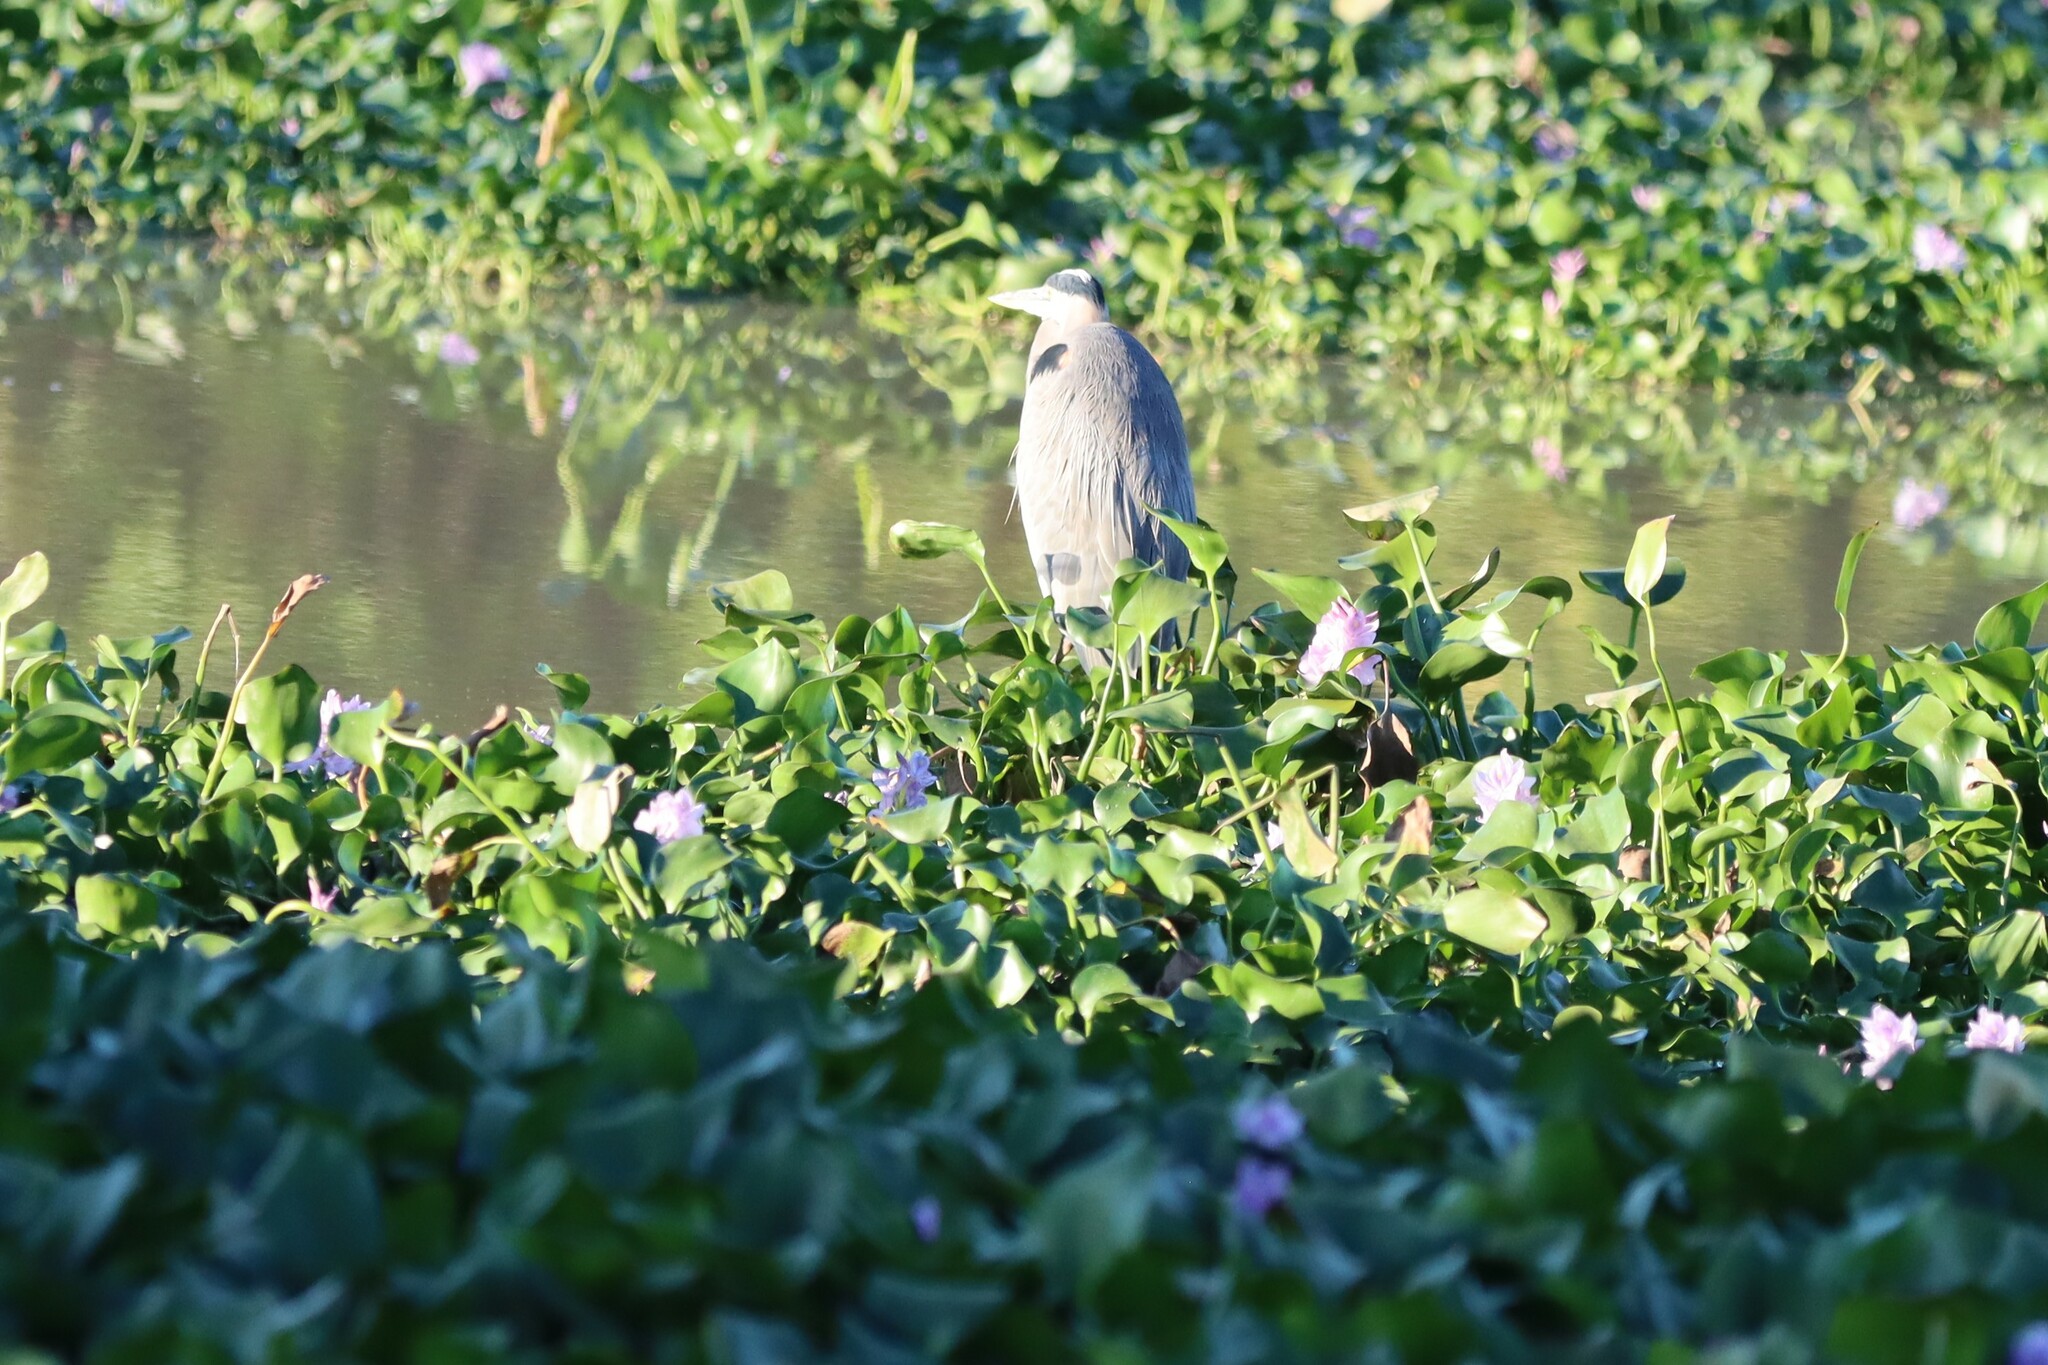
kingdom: Animalia
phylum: Chordata
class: Aves
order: Pelecaniformes
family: Ardeidae
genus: Ardea
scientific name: Ardea herodias
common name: Great blue heron
